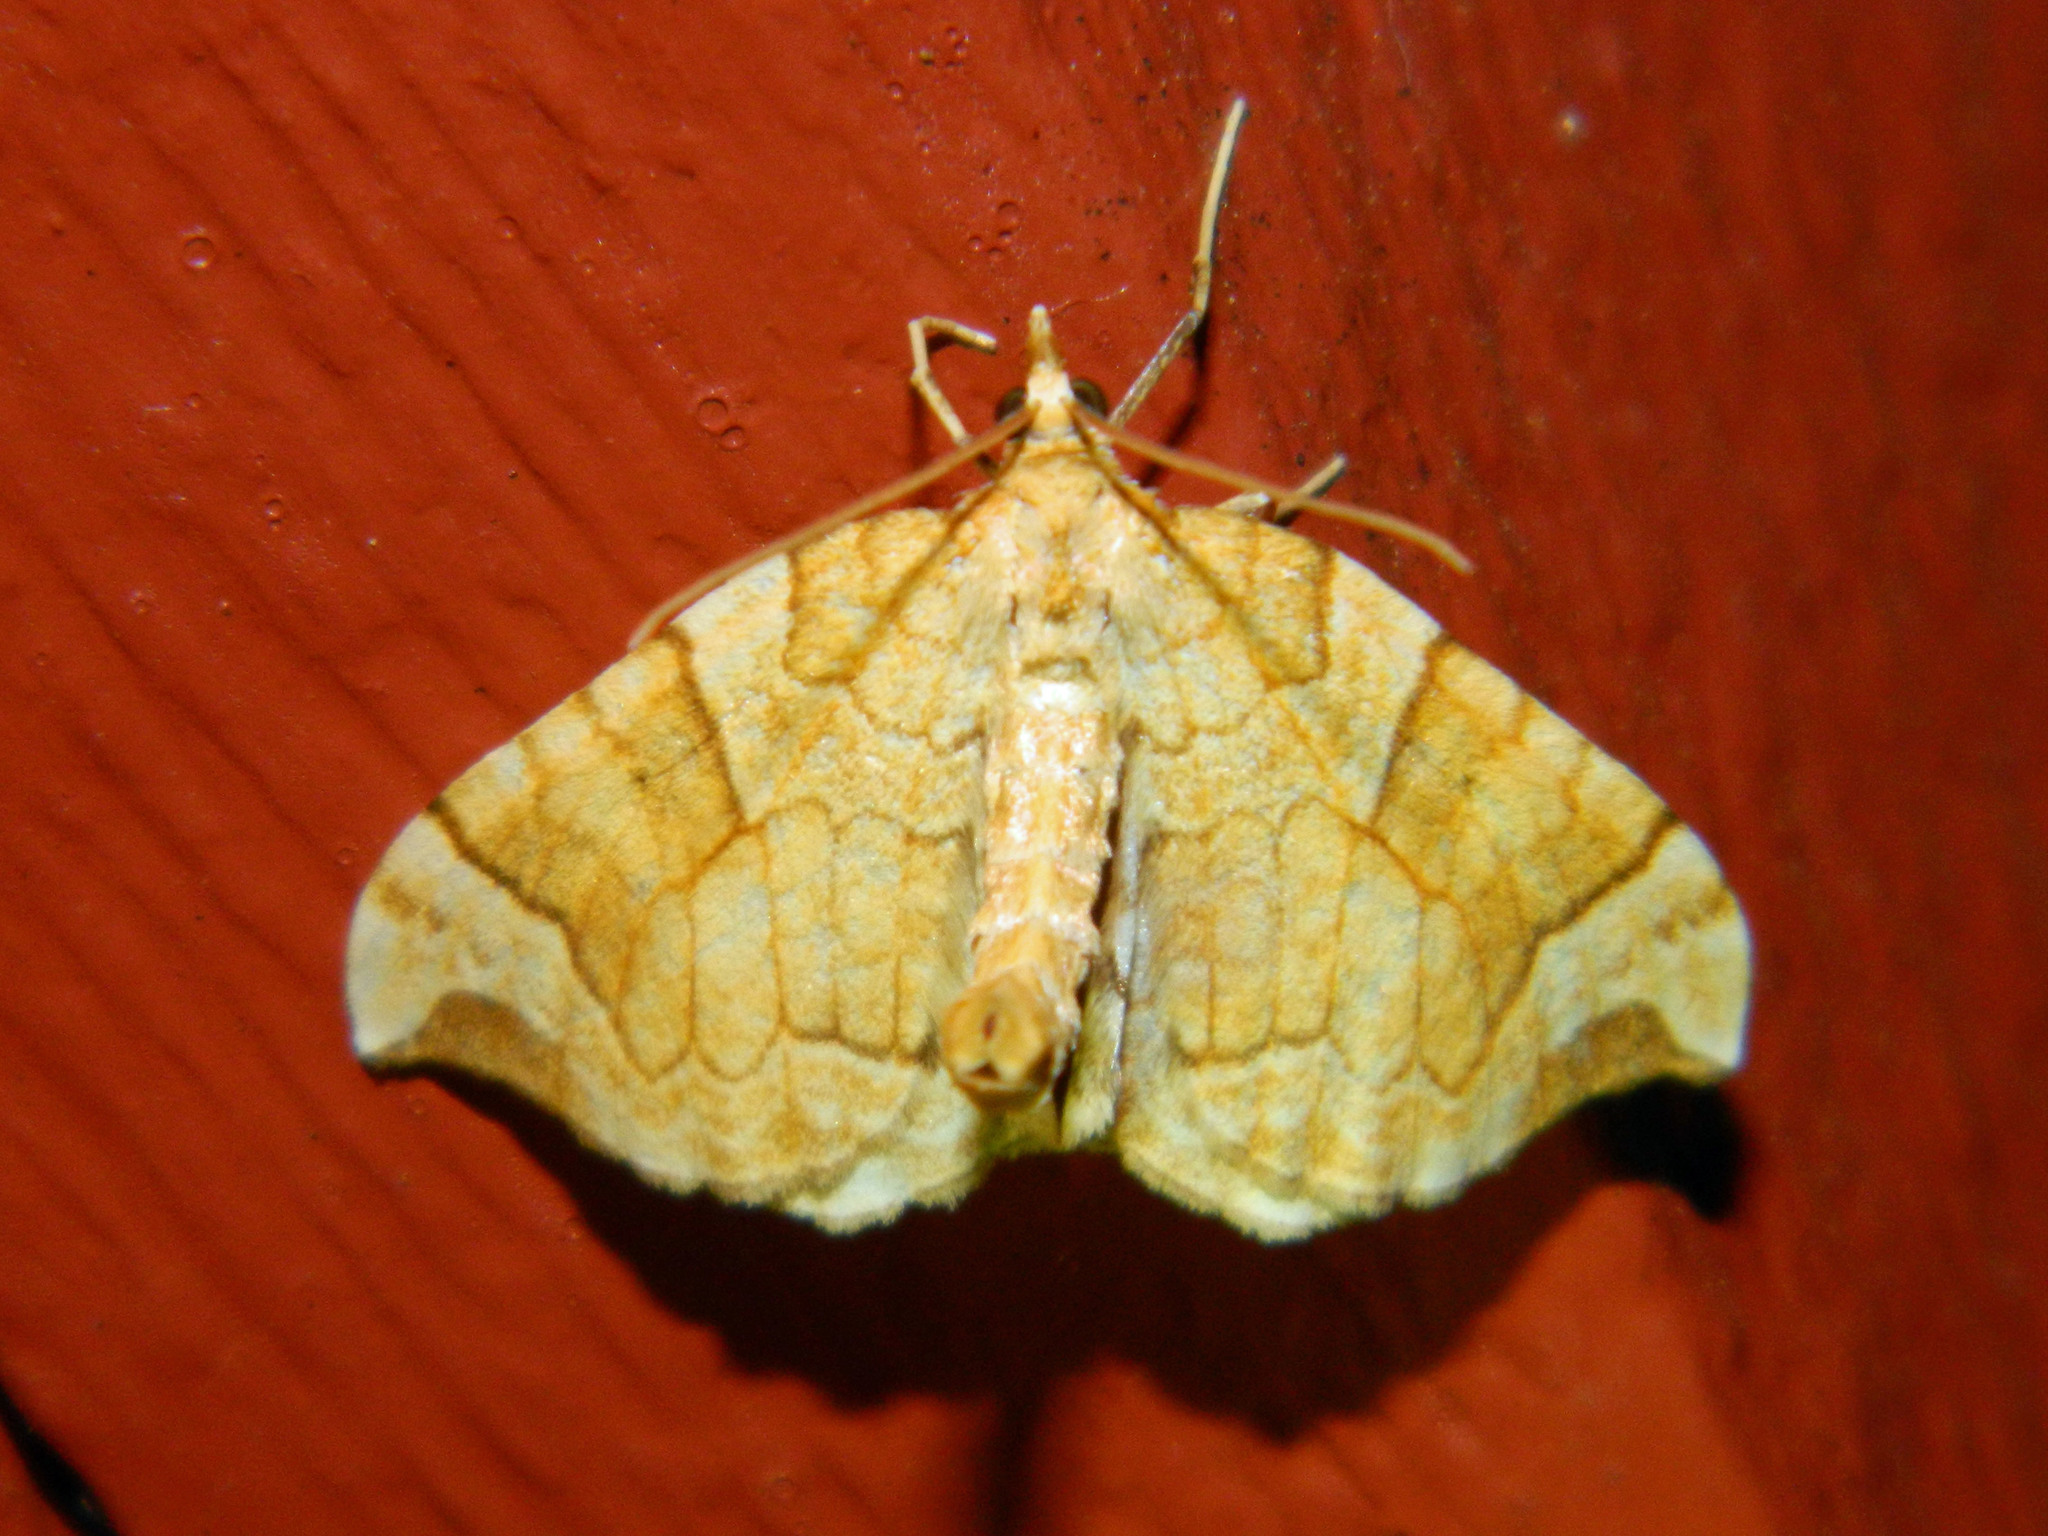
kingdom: Animalia
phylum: Arthropoda
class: Insecta
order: Lepidoptera
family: Geometridae
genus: Eulithis
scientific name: Eulithis propulsata
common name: Currant eulithis moth
